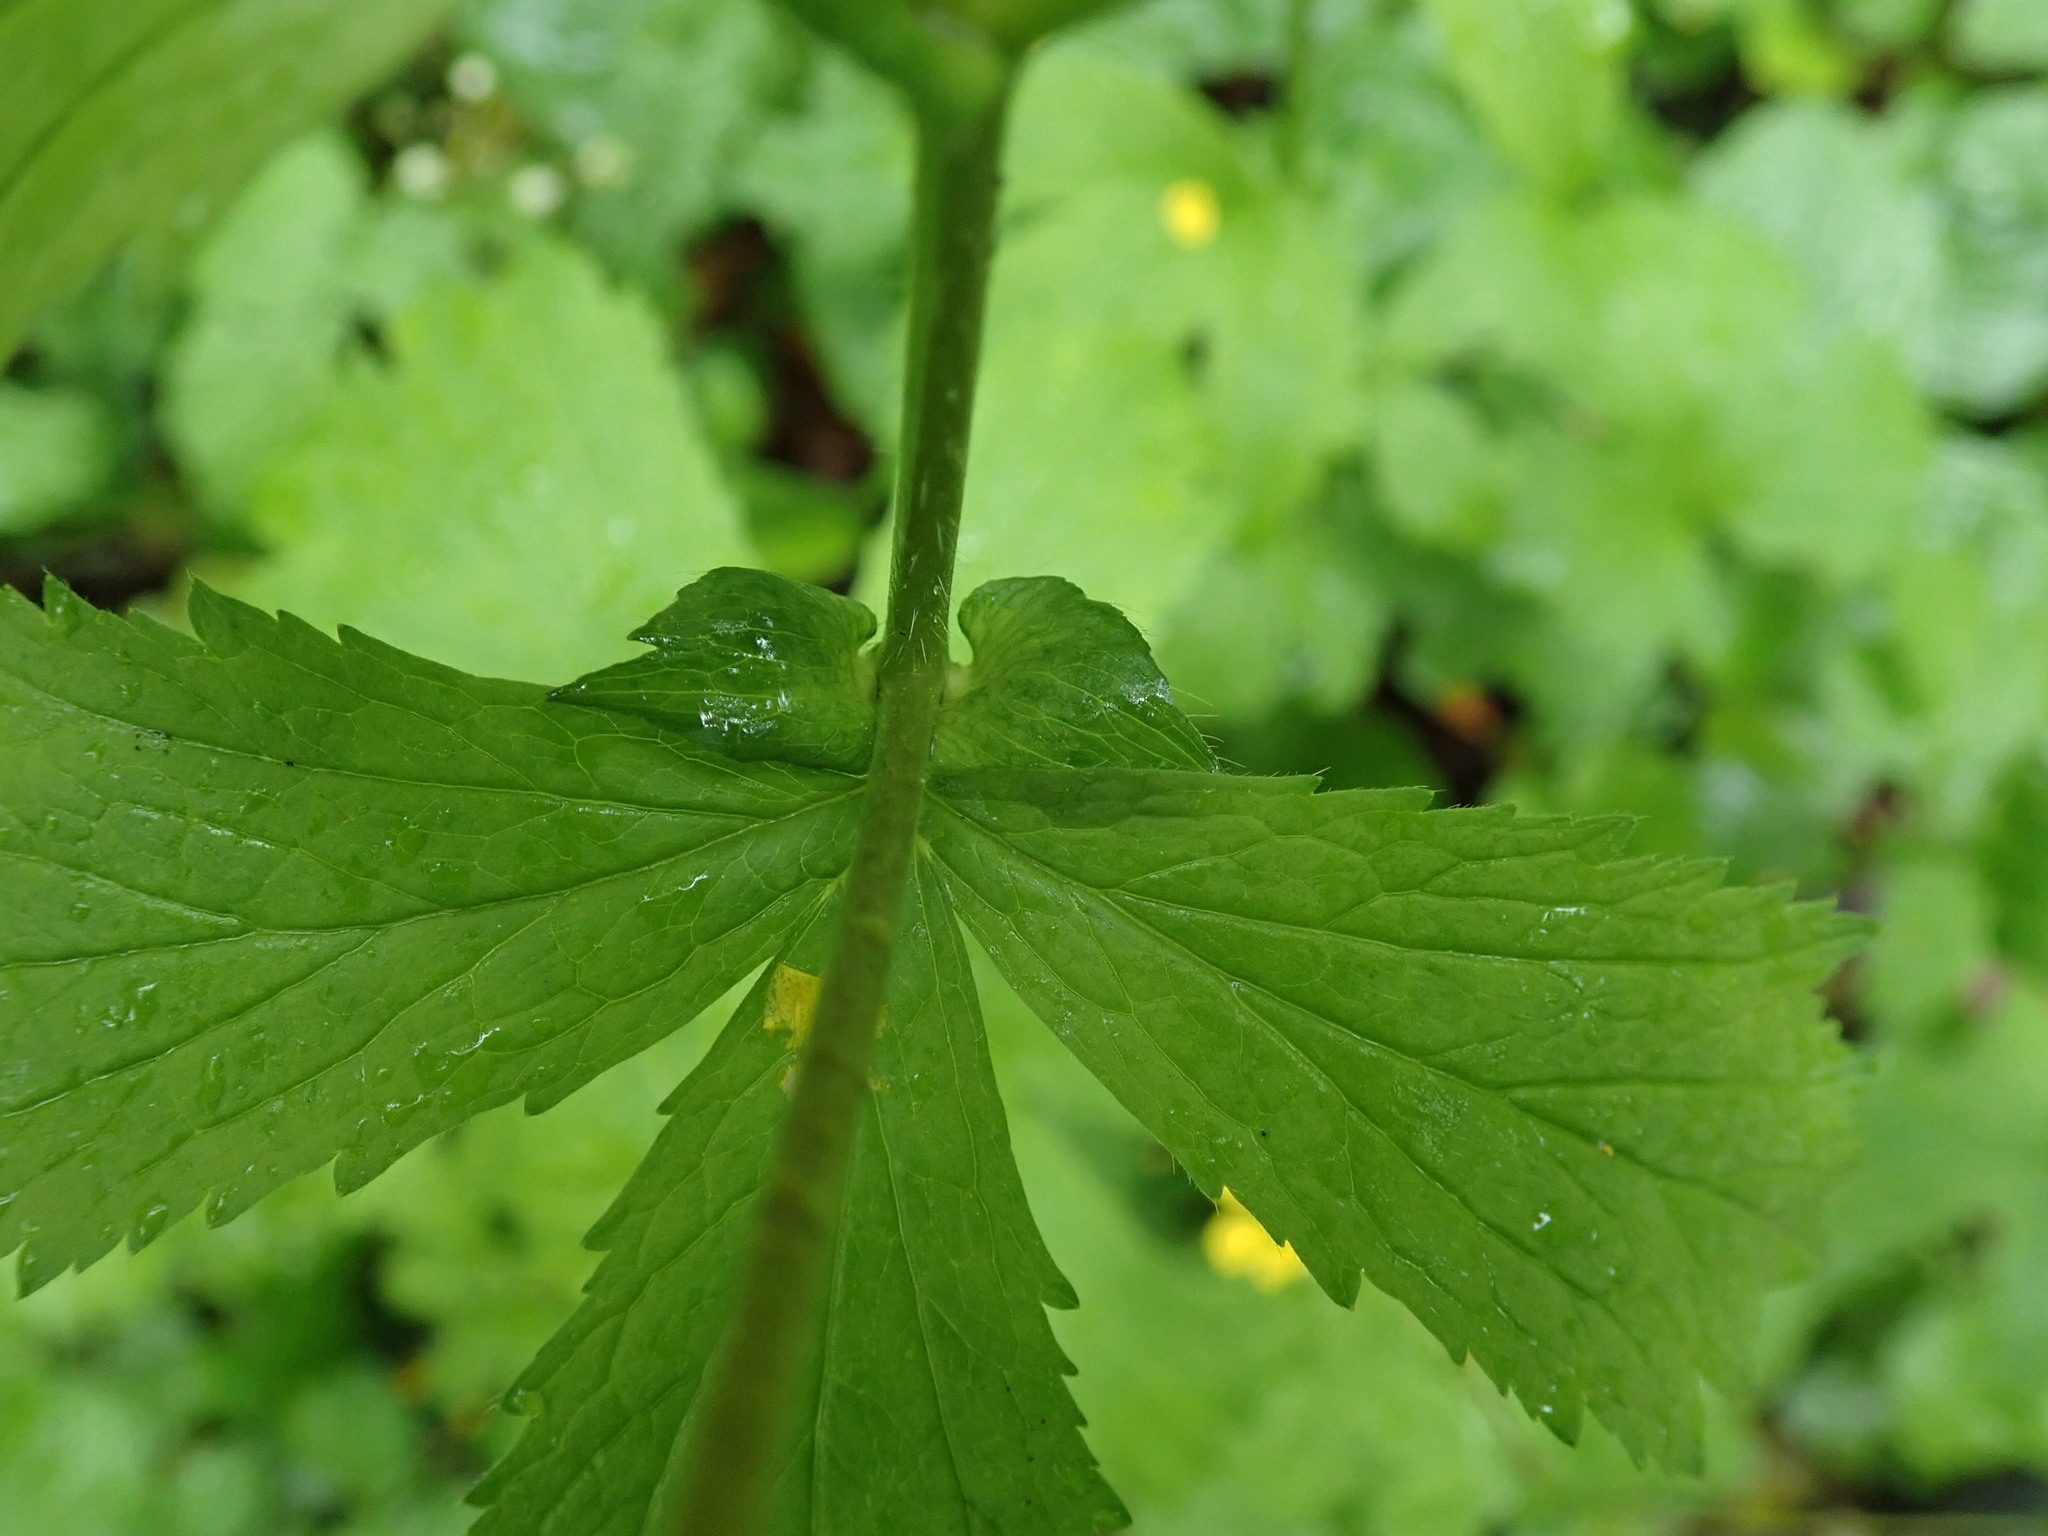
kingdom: Plantae
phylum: Tracheophyta
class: Magnoliopsida
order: Rosales
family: Rosaceae
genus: Geum
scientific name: Geum macrophyllum
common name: Large-leaved avens
